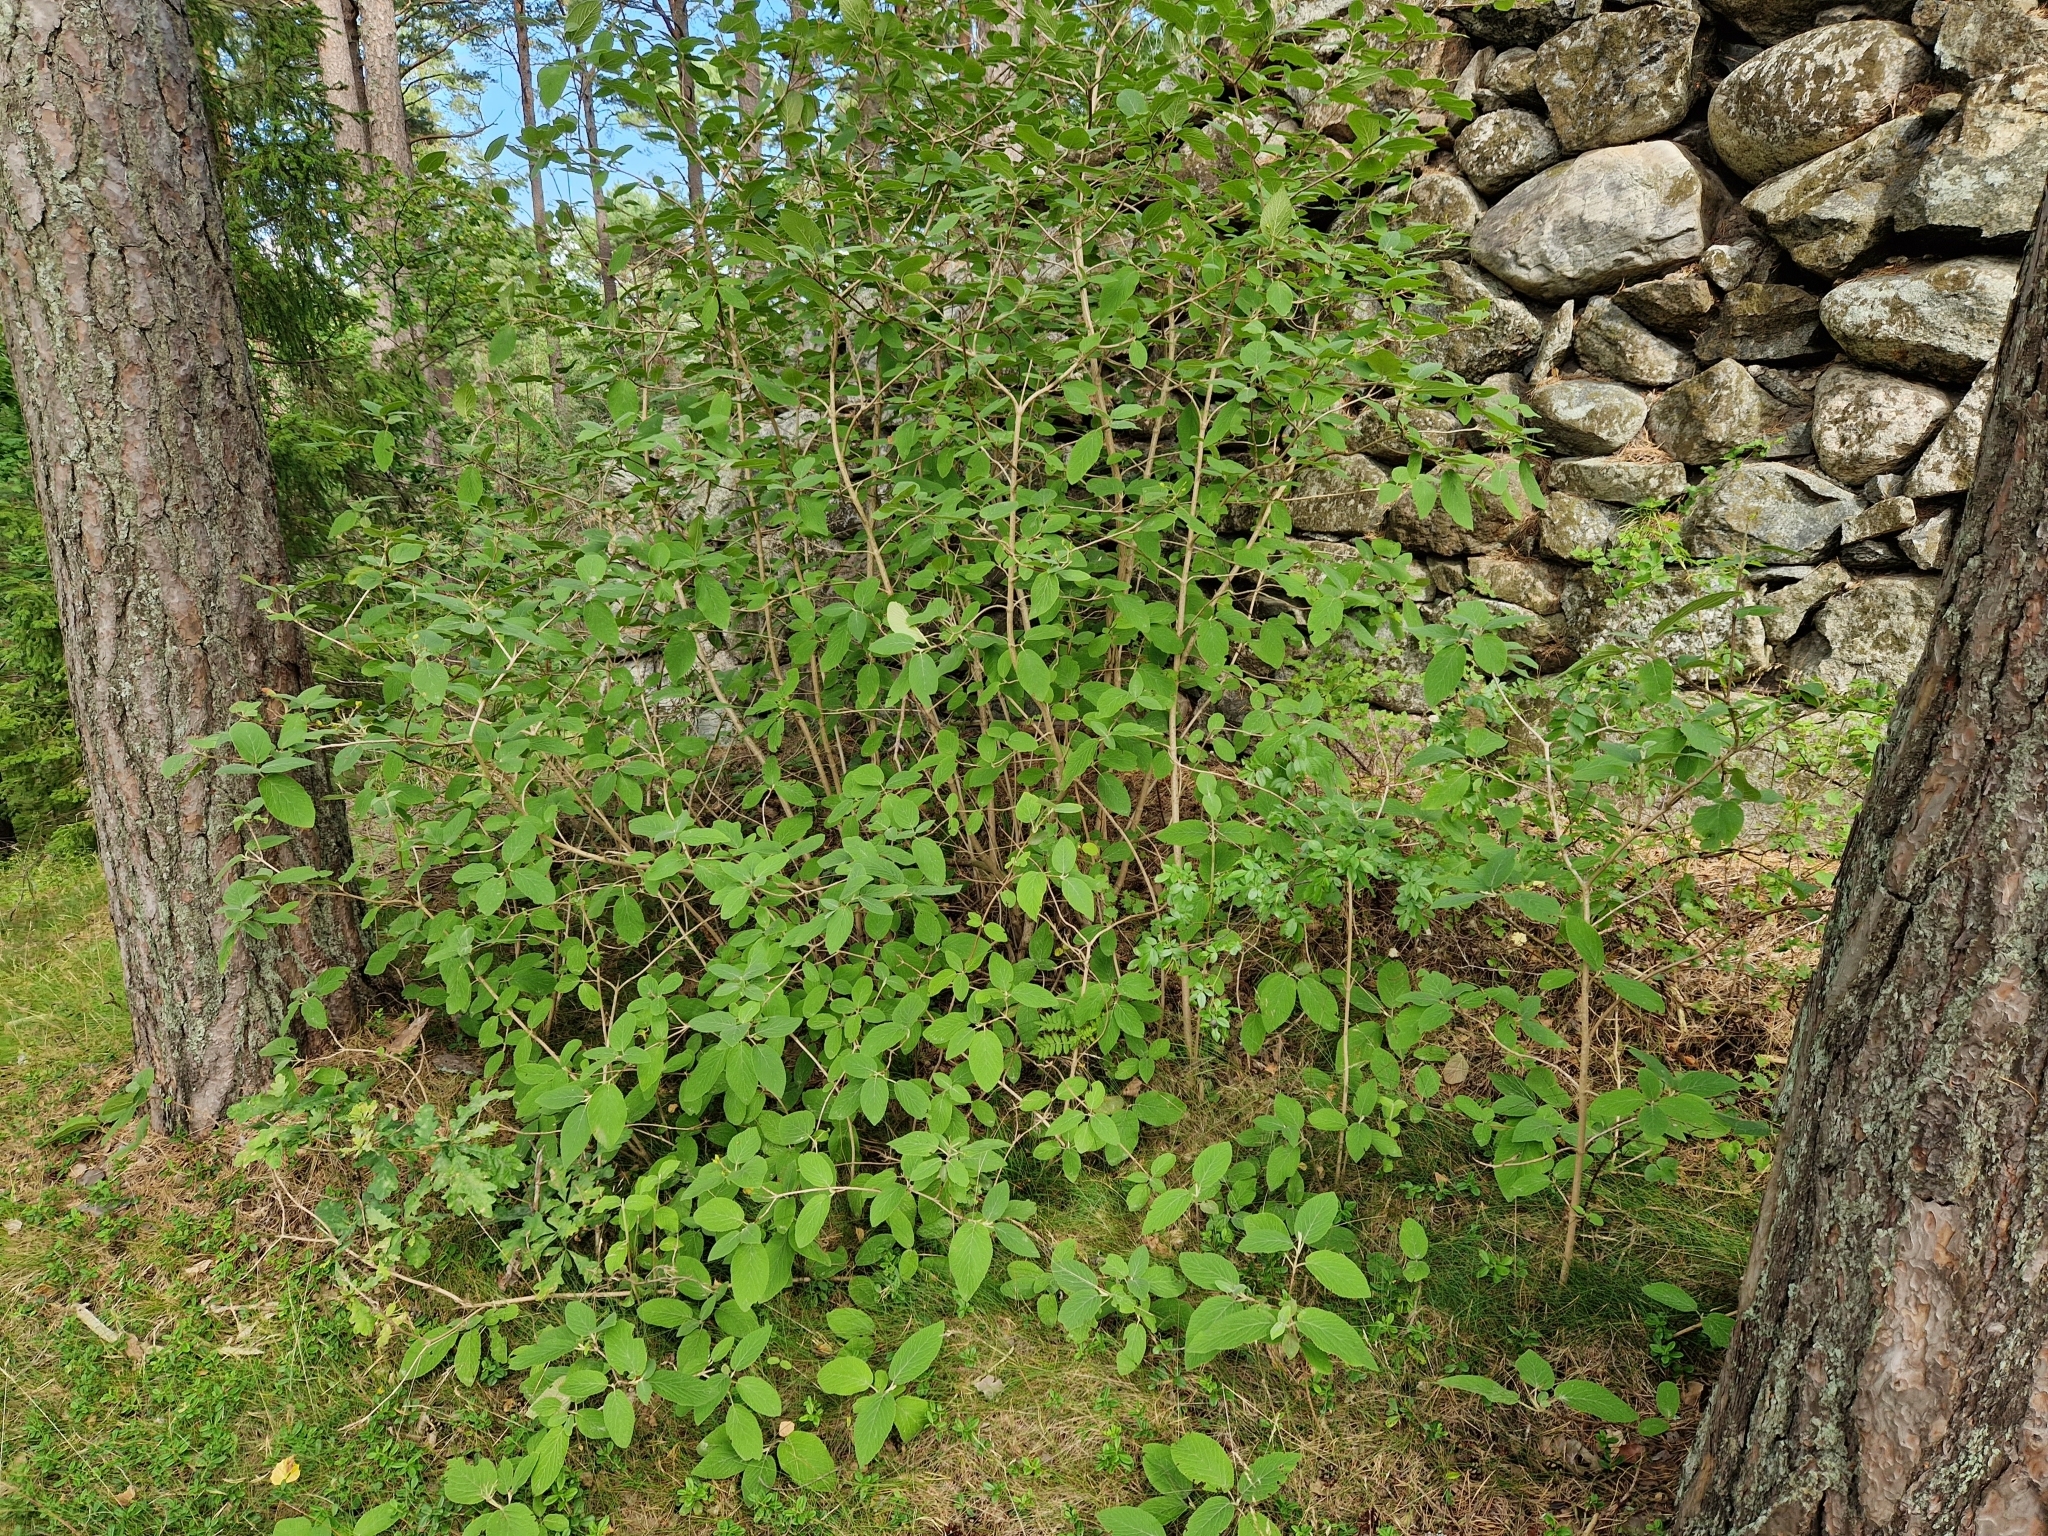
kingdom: Plantae
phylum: Tracheophyta
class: Magnoliopsida
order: Dipsacales
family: Viburnaceae
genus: Viburnum
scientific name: Viburnum lantana
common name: Wayfaring tree
